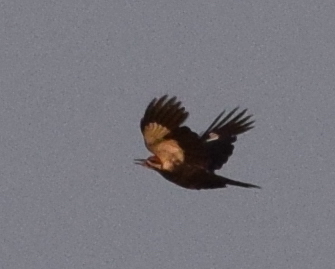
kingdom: Animalia
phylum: Chordata
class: Aves
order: Piciformes
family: Picidae
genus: Dryocopus
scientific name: Dryocopus pileatus
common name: Pileated woodpecker
